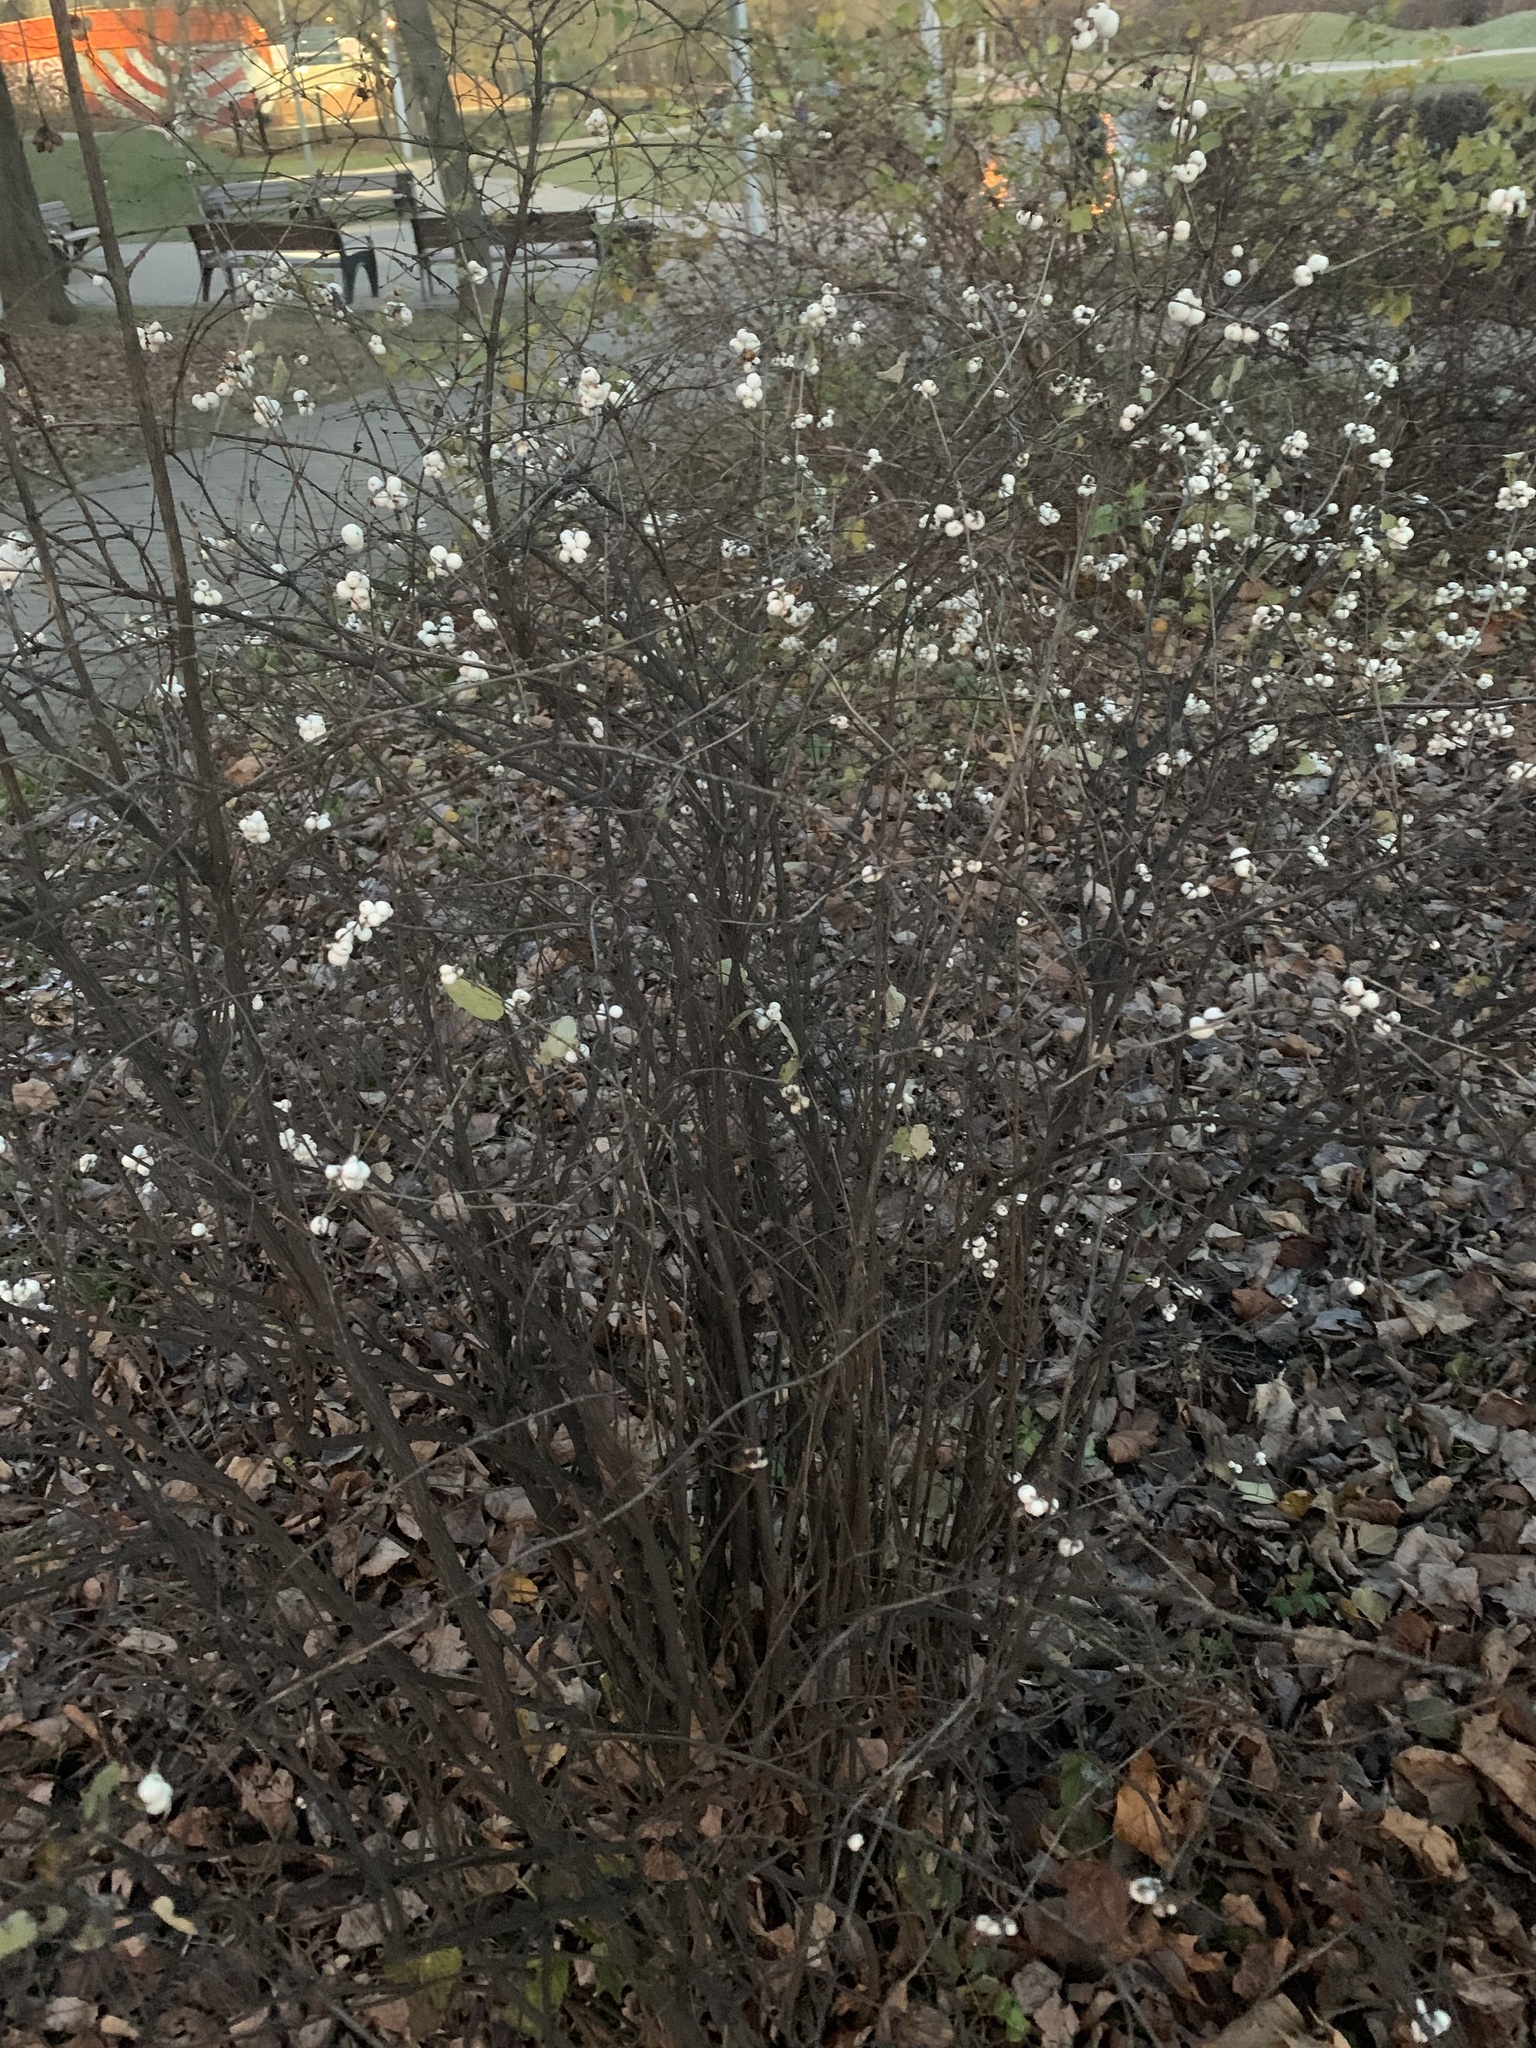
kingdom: Plantae
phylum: Tracheophyta
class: Magnoliopsida
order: Dipsacales
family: Caprifoliaceae
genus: Symphoricarpos
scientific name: Symphoricarpos albus
